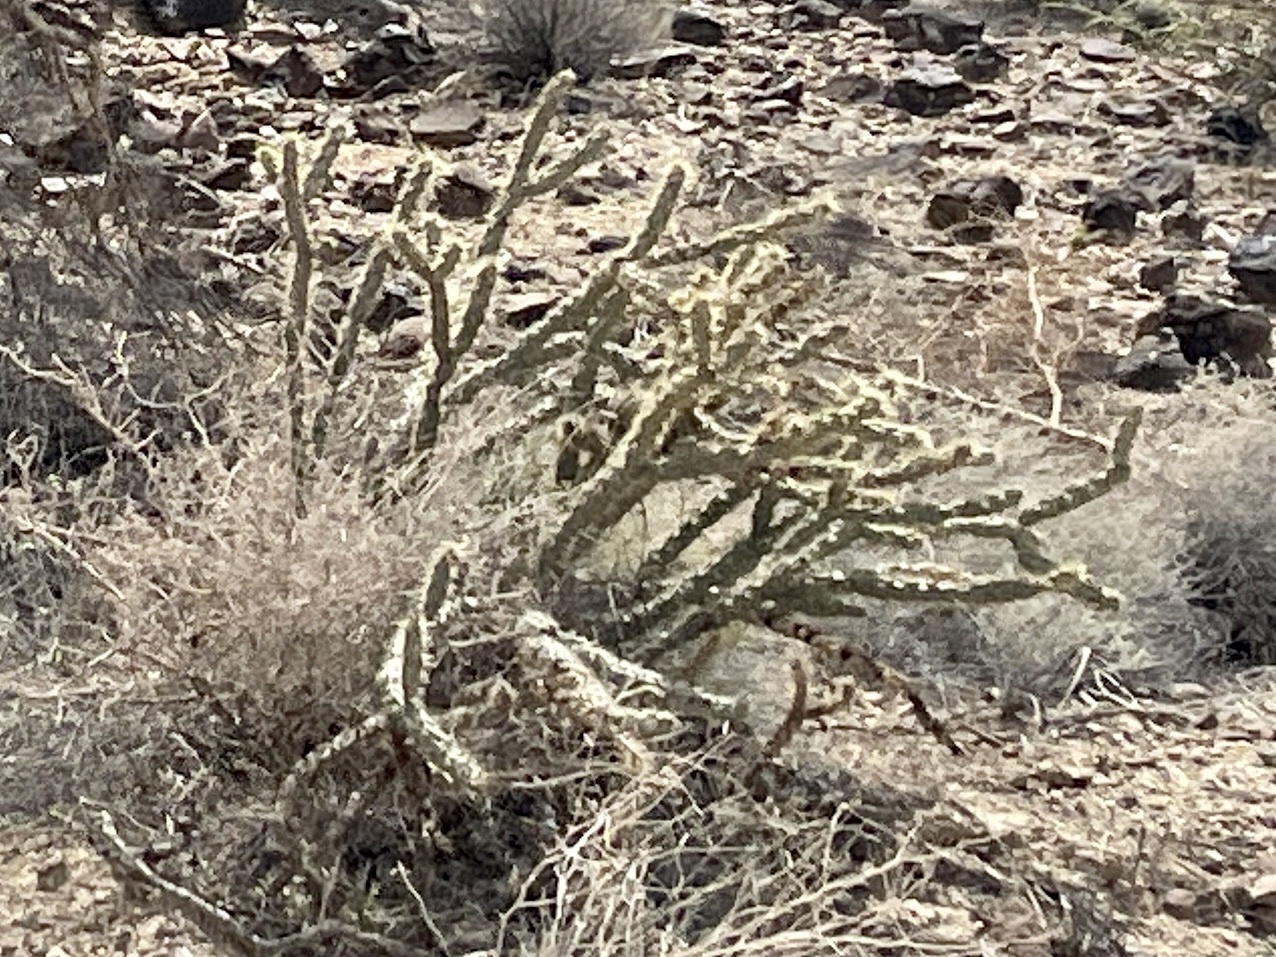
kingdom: Plantae
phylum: Tracheophyta
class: Magnoliopsida
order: Caryophyllales
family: Cactaceae
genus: Cylindropuntia
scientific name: Cylindropuntia acanthocarpa
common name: Buckhorn cholla
